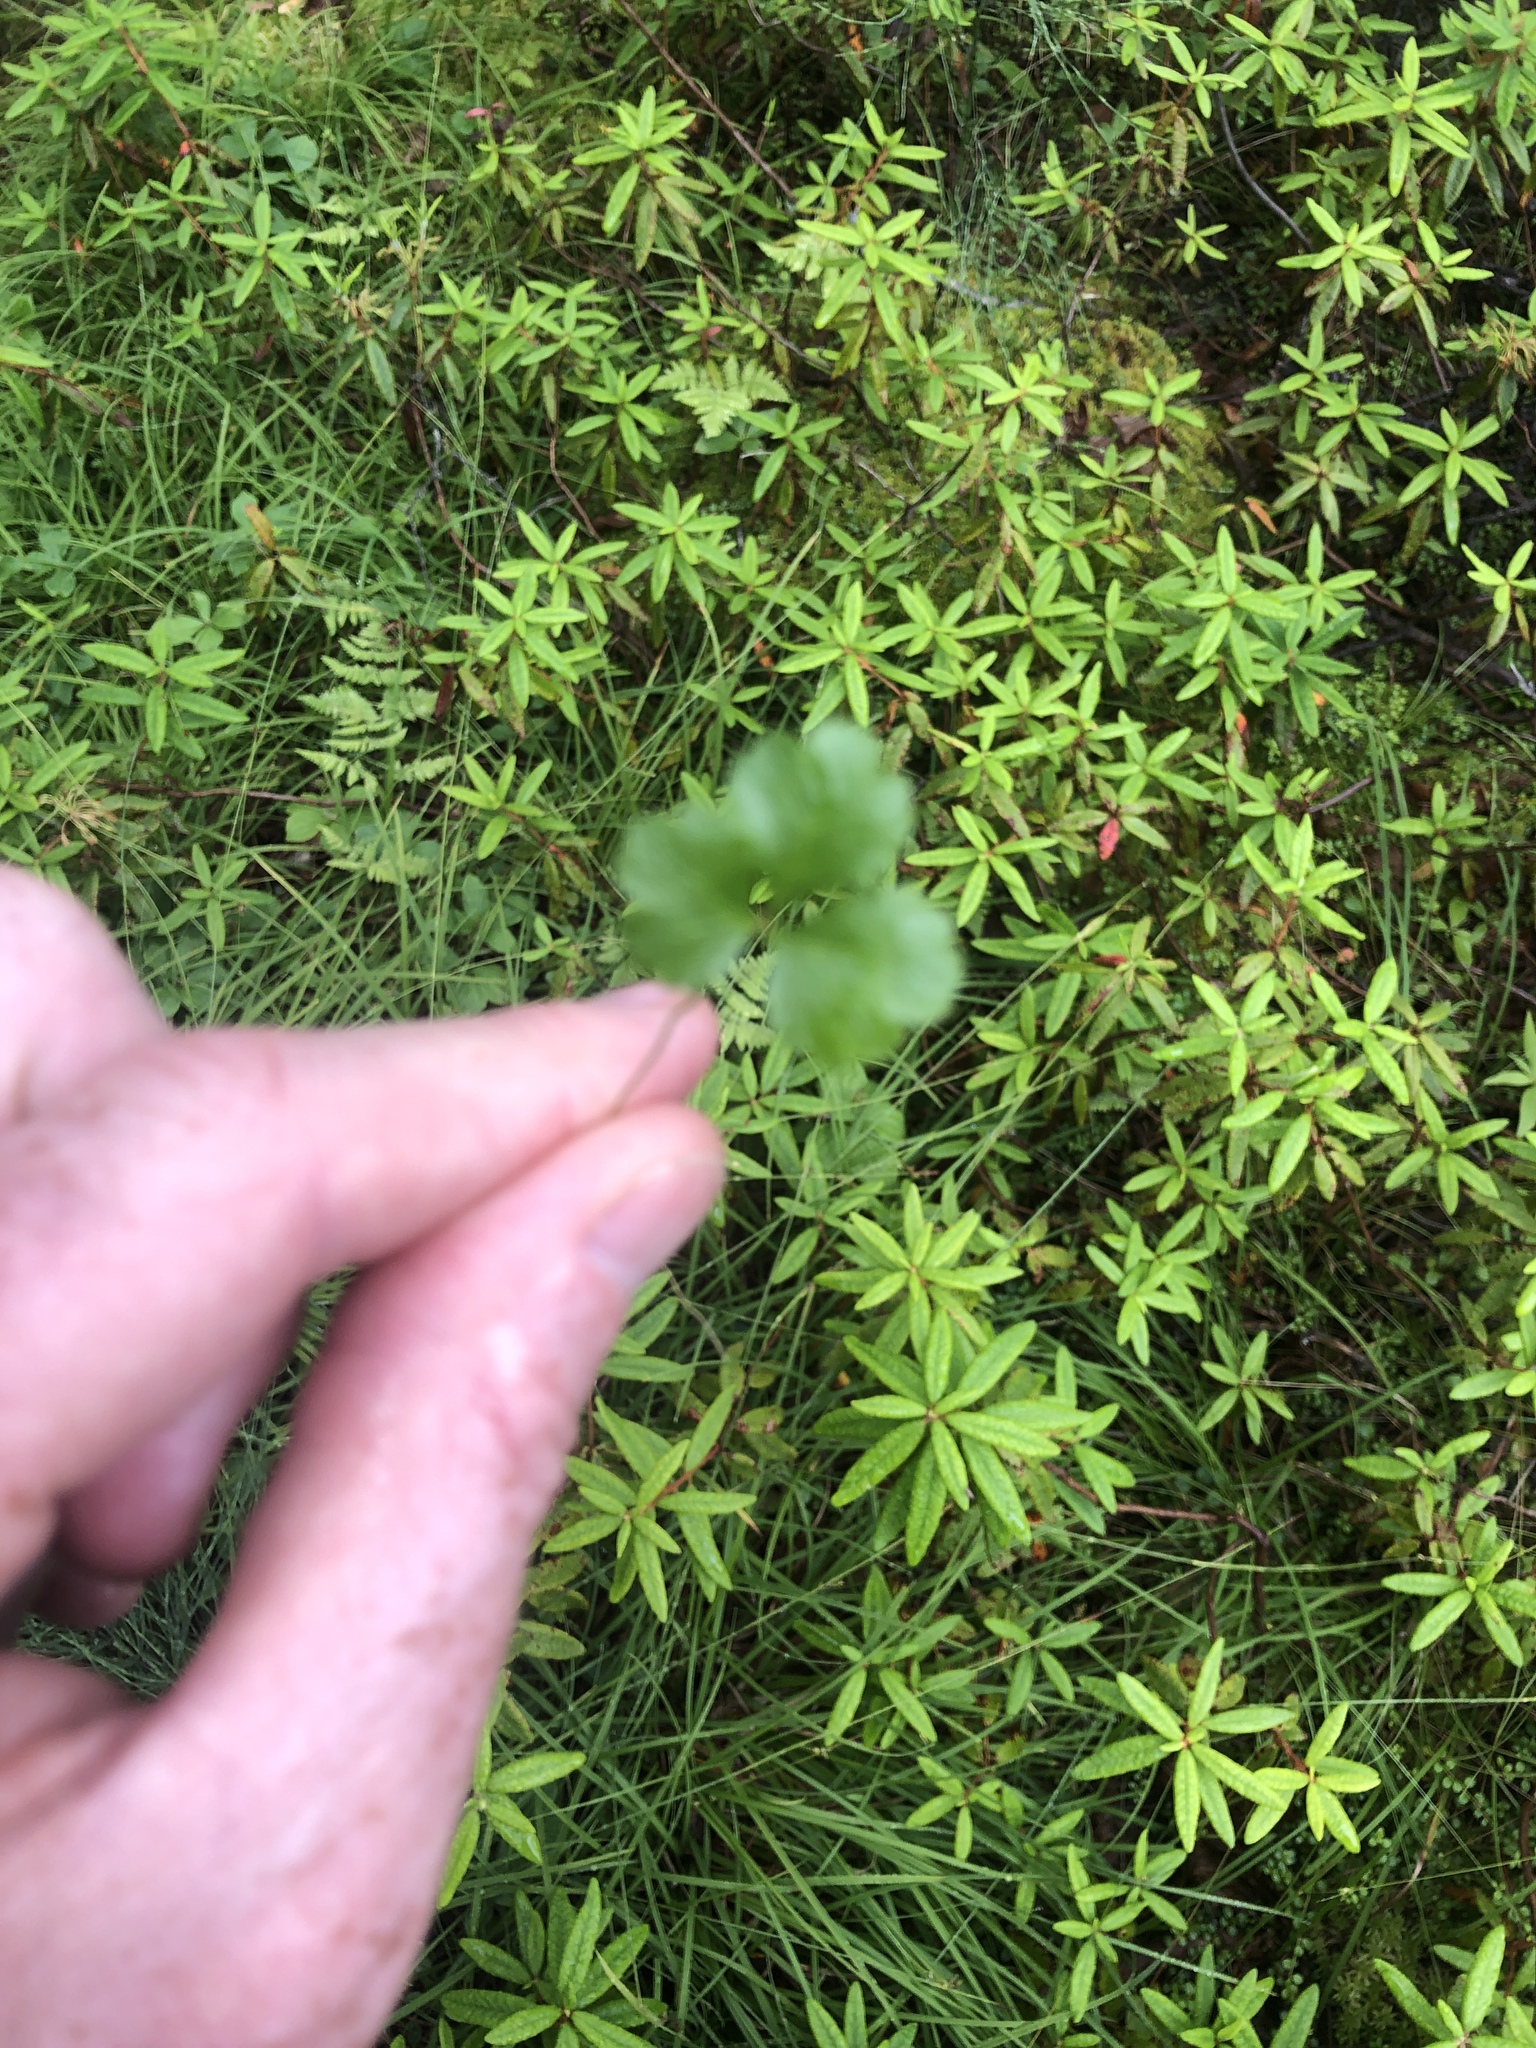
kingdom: Plantae
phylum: Tracheophyta
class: Magnoliopsida
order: Ranunculales
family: Ranunculaceae
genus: Coptis
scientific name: Coptis trifolia
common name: Canker-root
